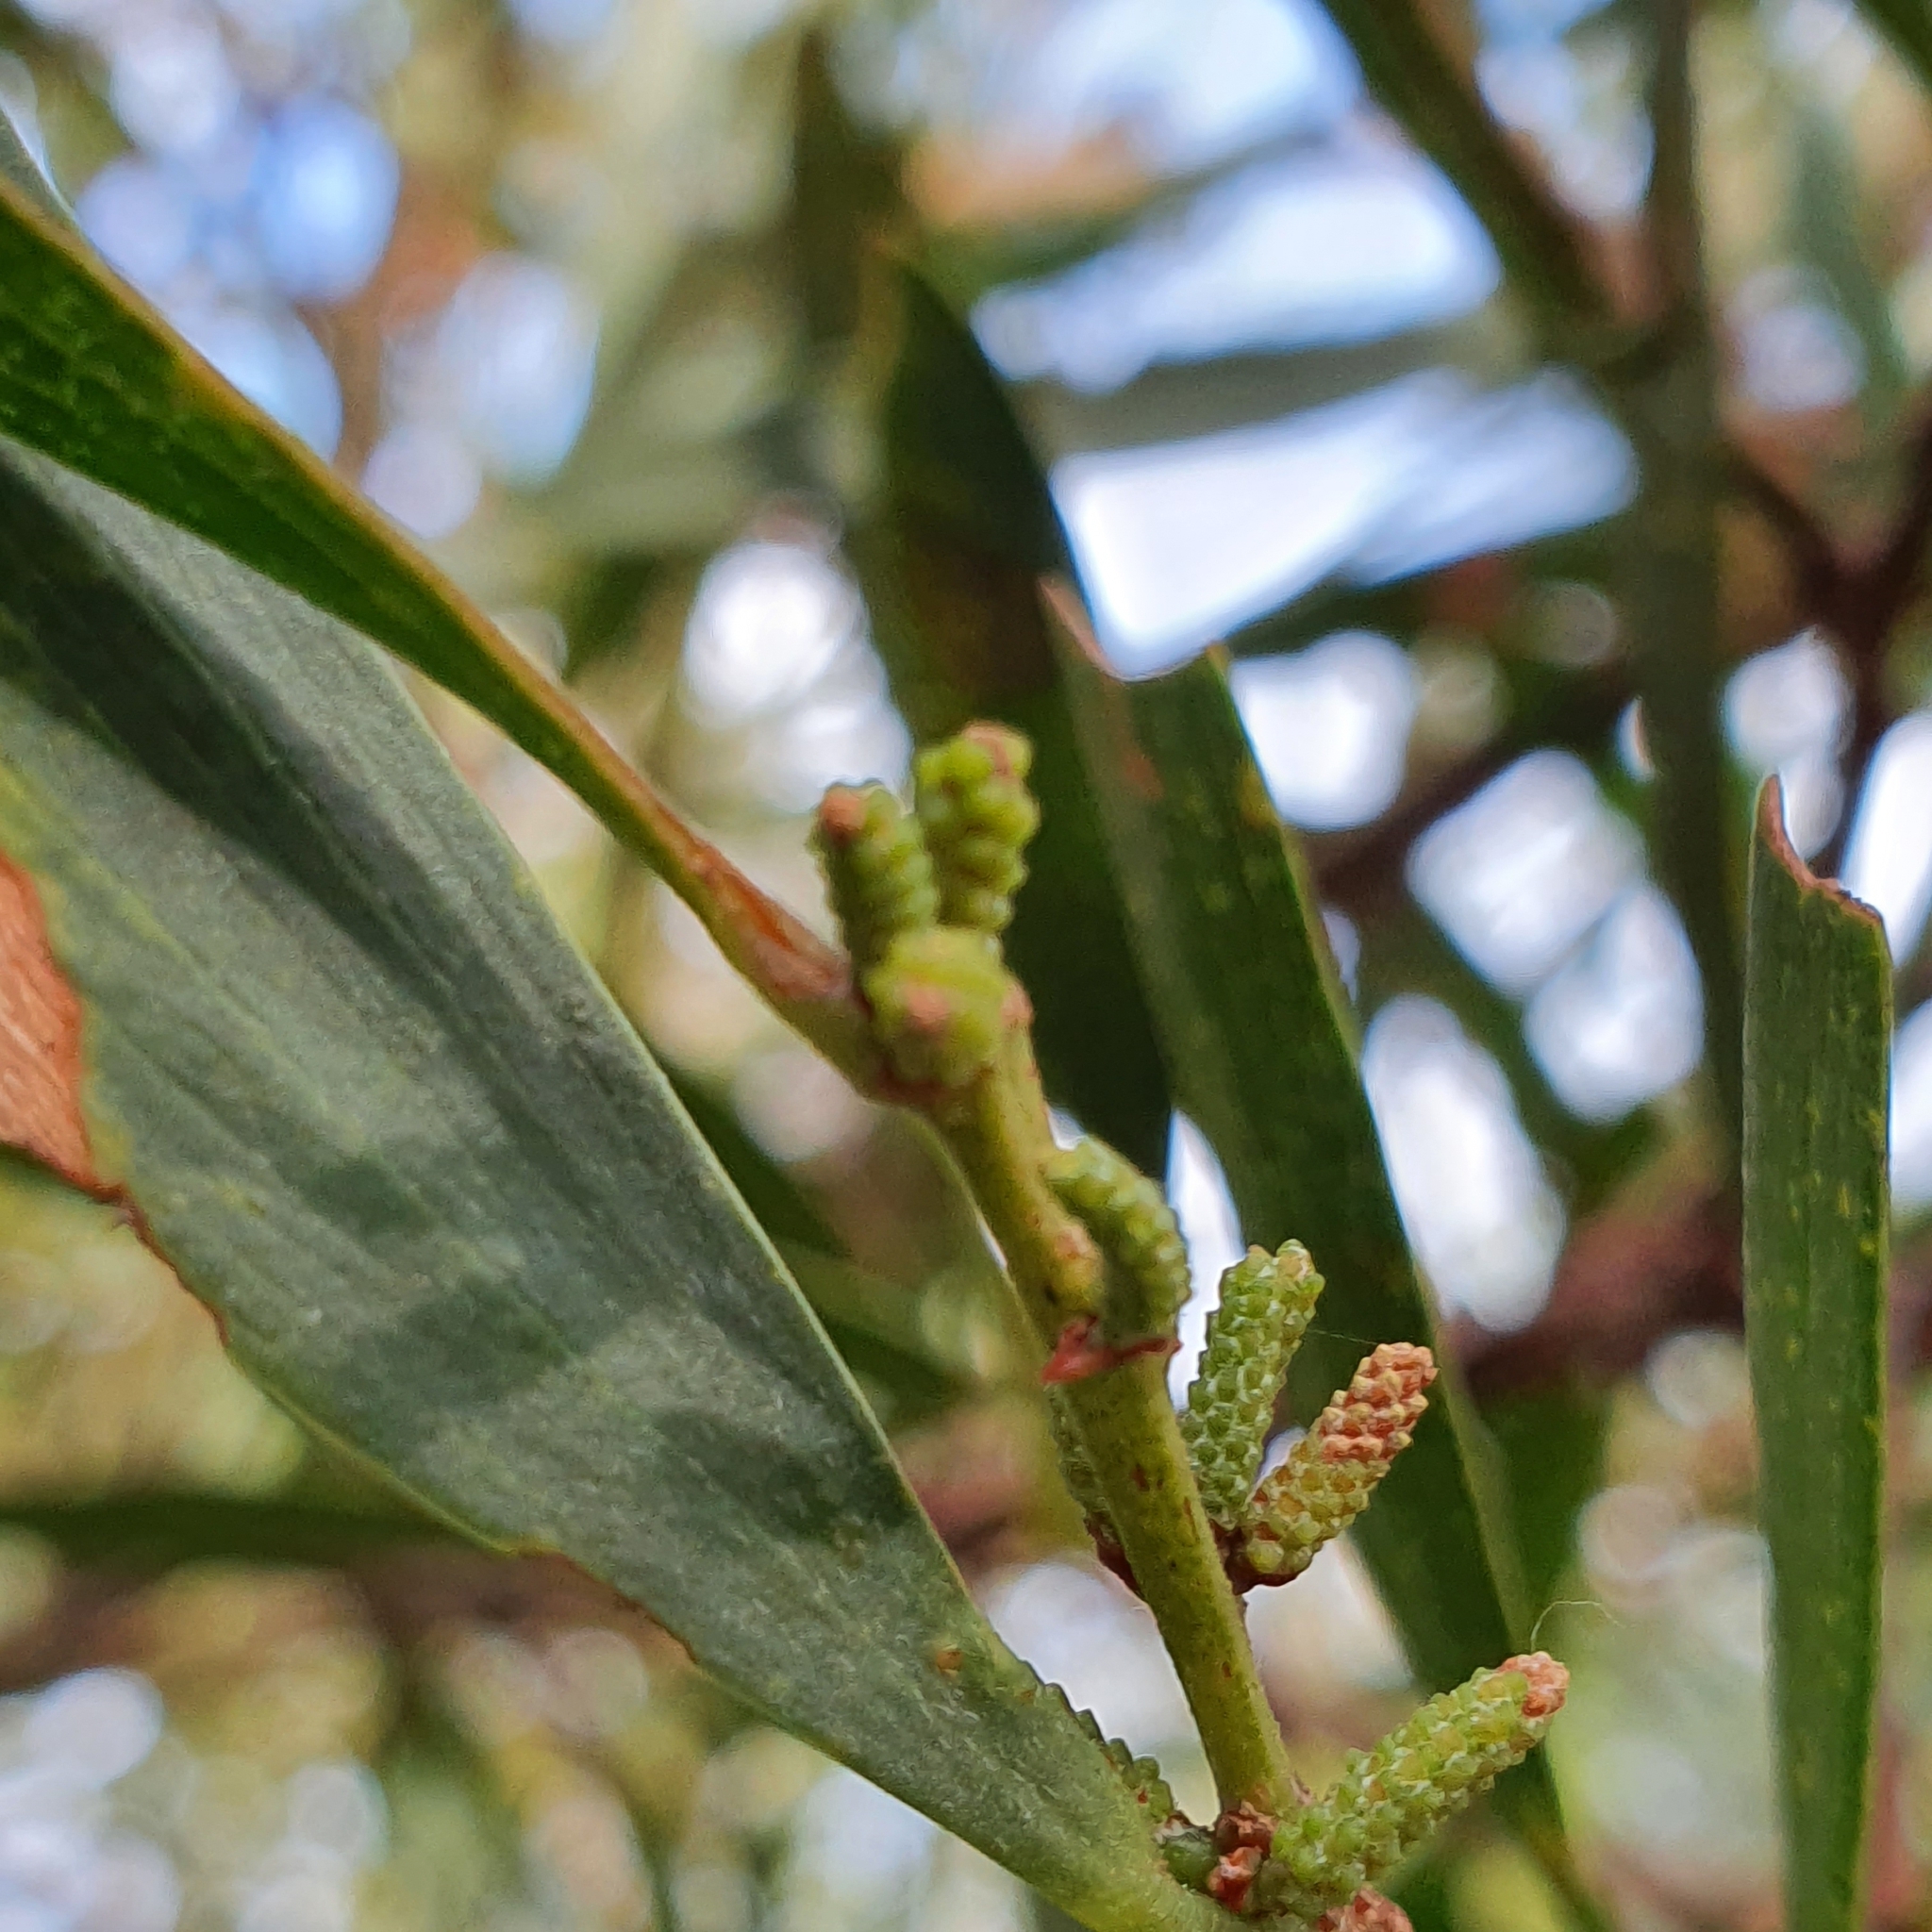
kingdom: Plantae
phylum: Tracheophyta
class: Magnoliopsida
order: Fabales
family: Fabaceae
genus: Acacia
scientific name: Acacia longifolia
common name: Sydney golden wattle
